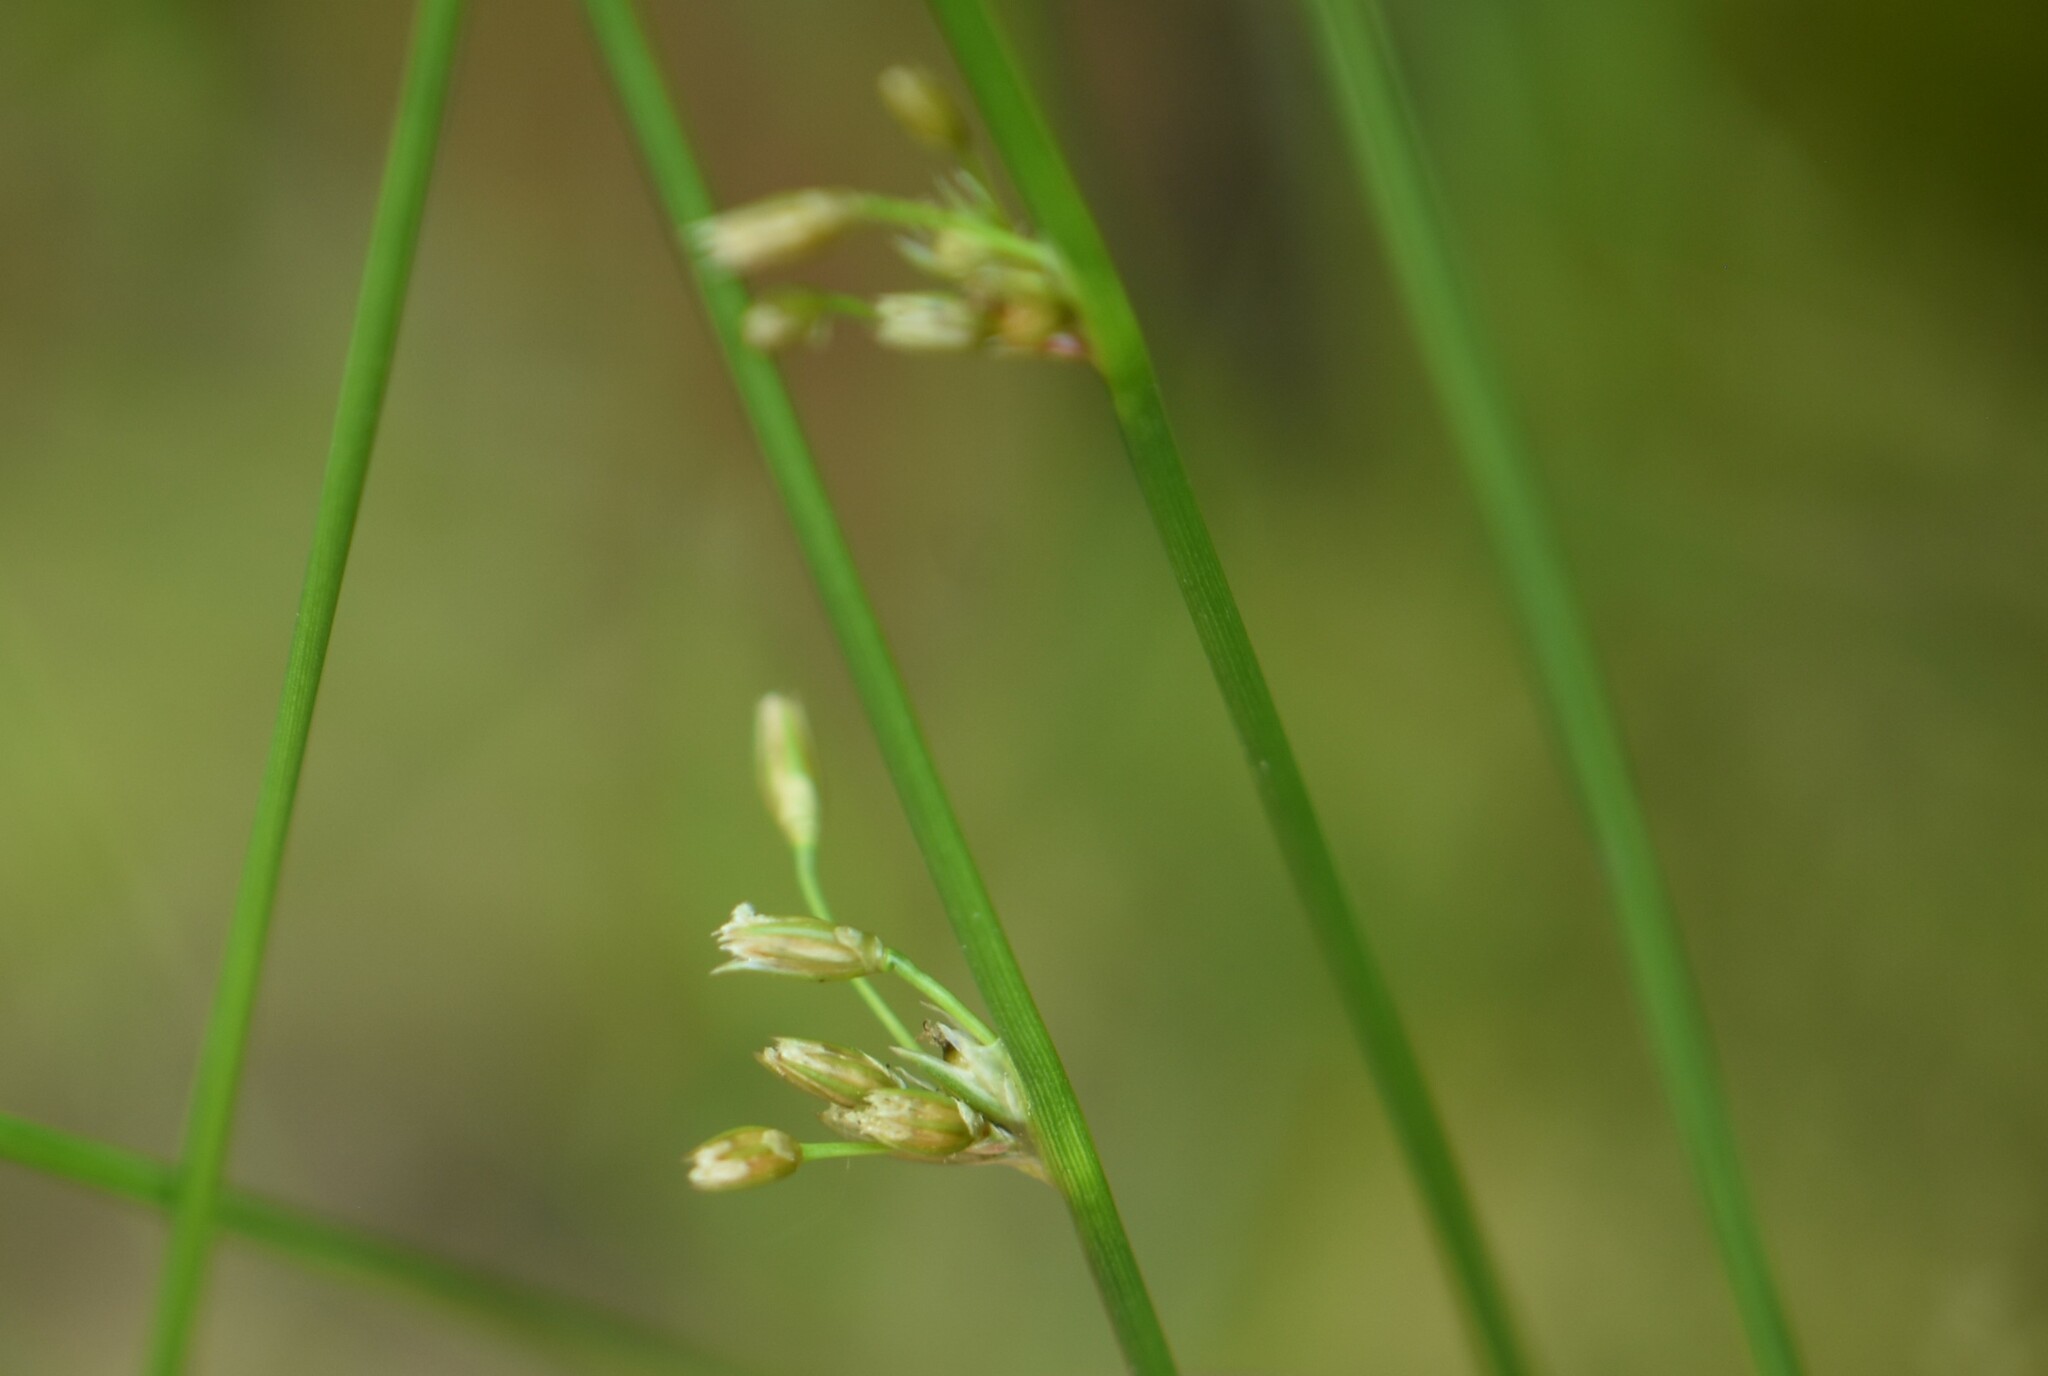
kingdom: Plantae
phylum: Tracheophyta
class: Liliopsida
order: Poales
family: Juncaceae
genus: Juncus
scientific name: Juncus filiformis
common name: Thread rush
